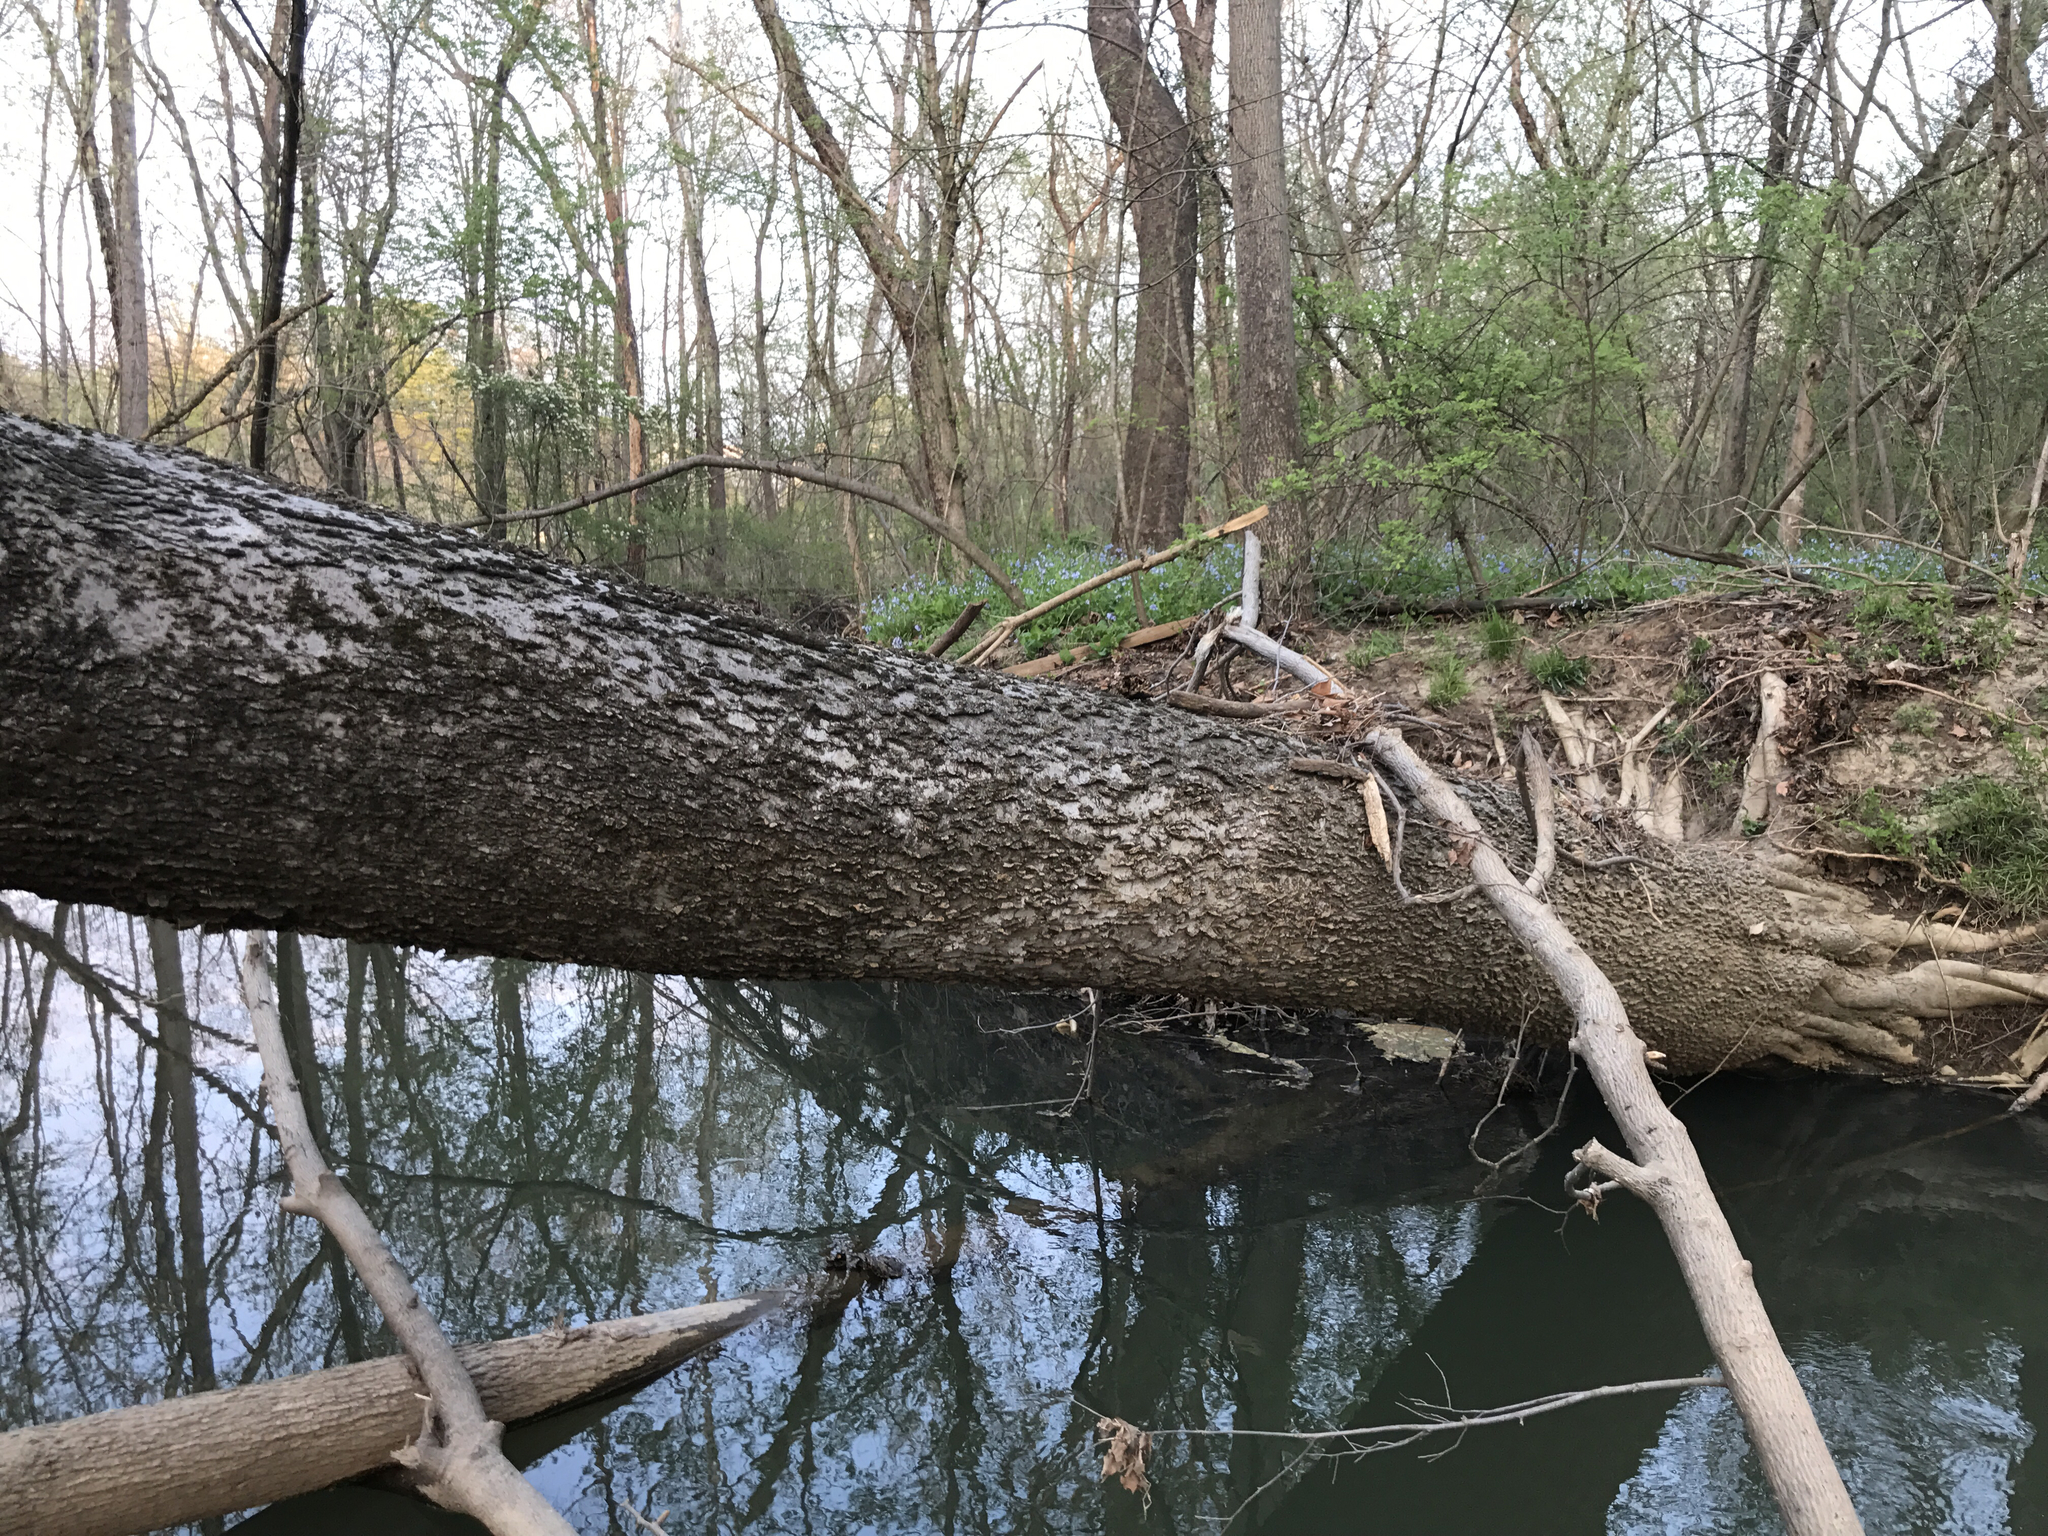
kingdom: Plantae
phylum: Tracheophyta
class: Magnoliopsida
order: Rosales
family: Cannabaceae
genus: Celtis
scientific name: Celtis occidentalis
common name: Common hackberry
